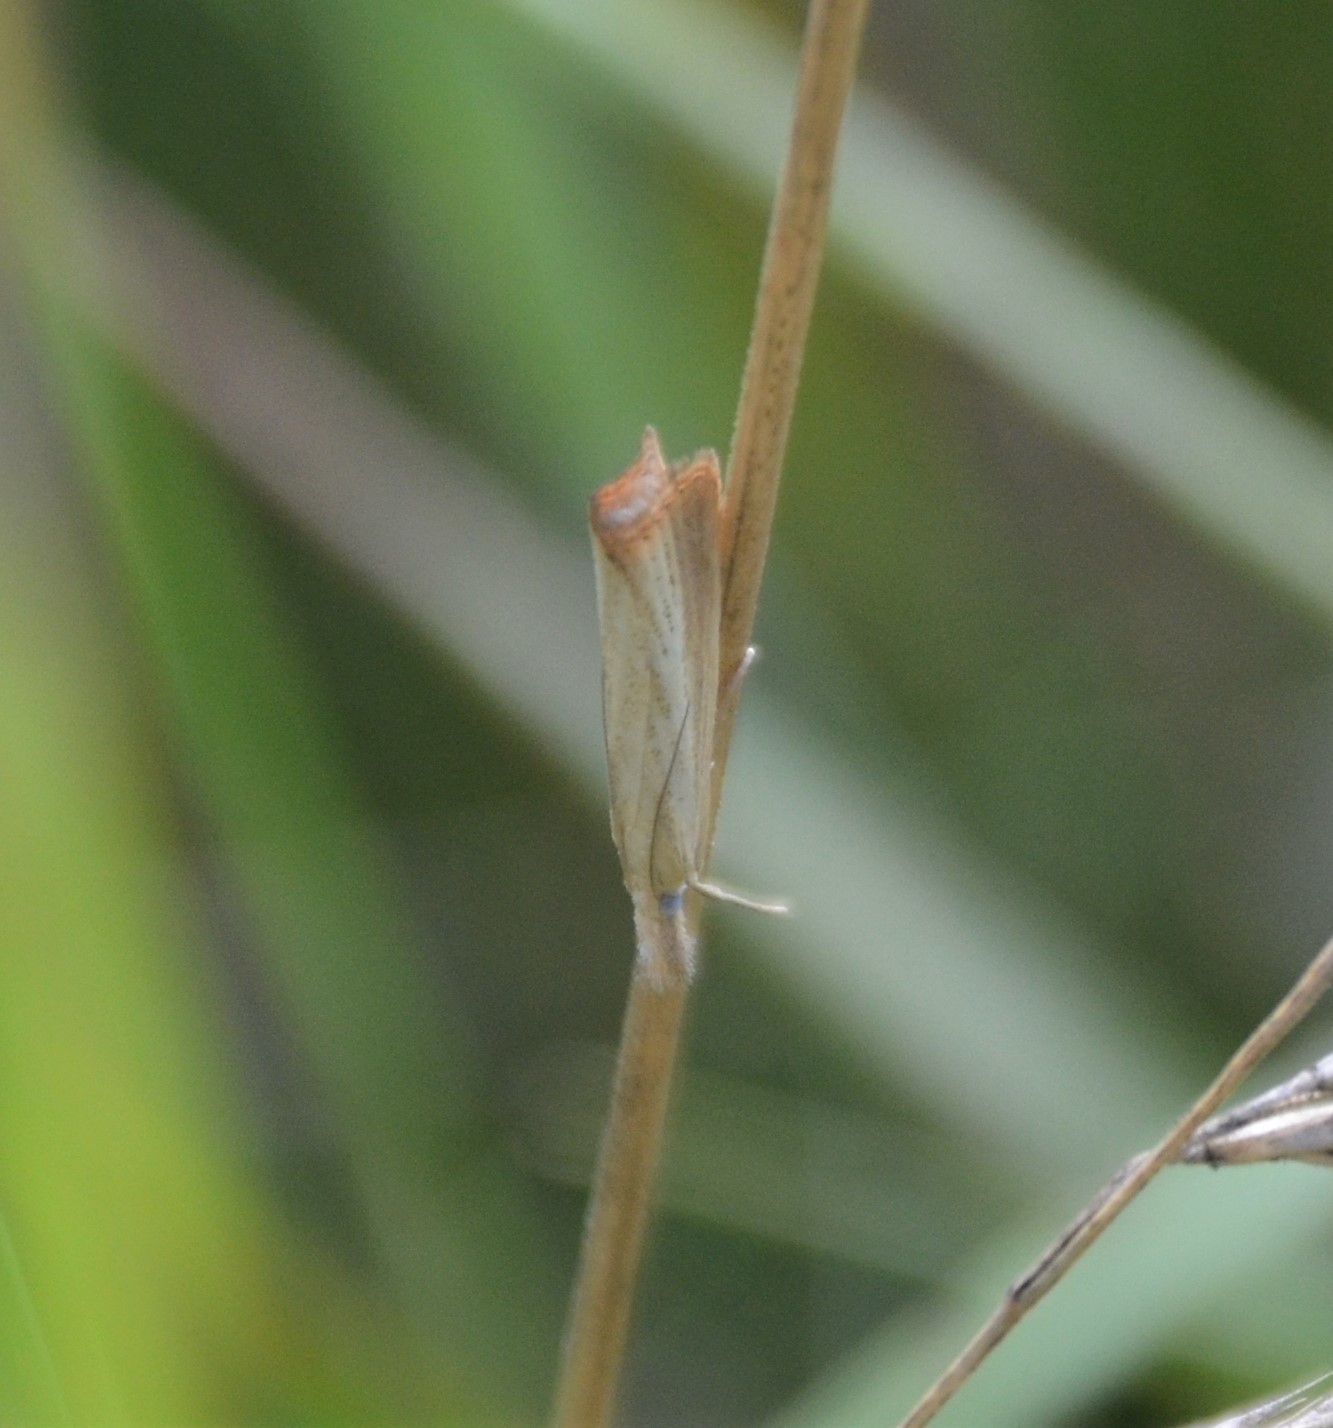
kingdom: Animalia
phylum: Arthropoda
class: Insecta
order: Lepidoptera
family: Crambidae
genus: Chrysoteuchia
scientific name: Chrysoteuchia culmella
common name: Garden grass-veneer
